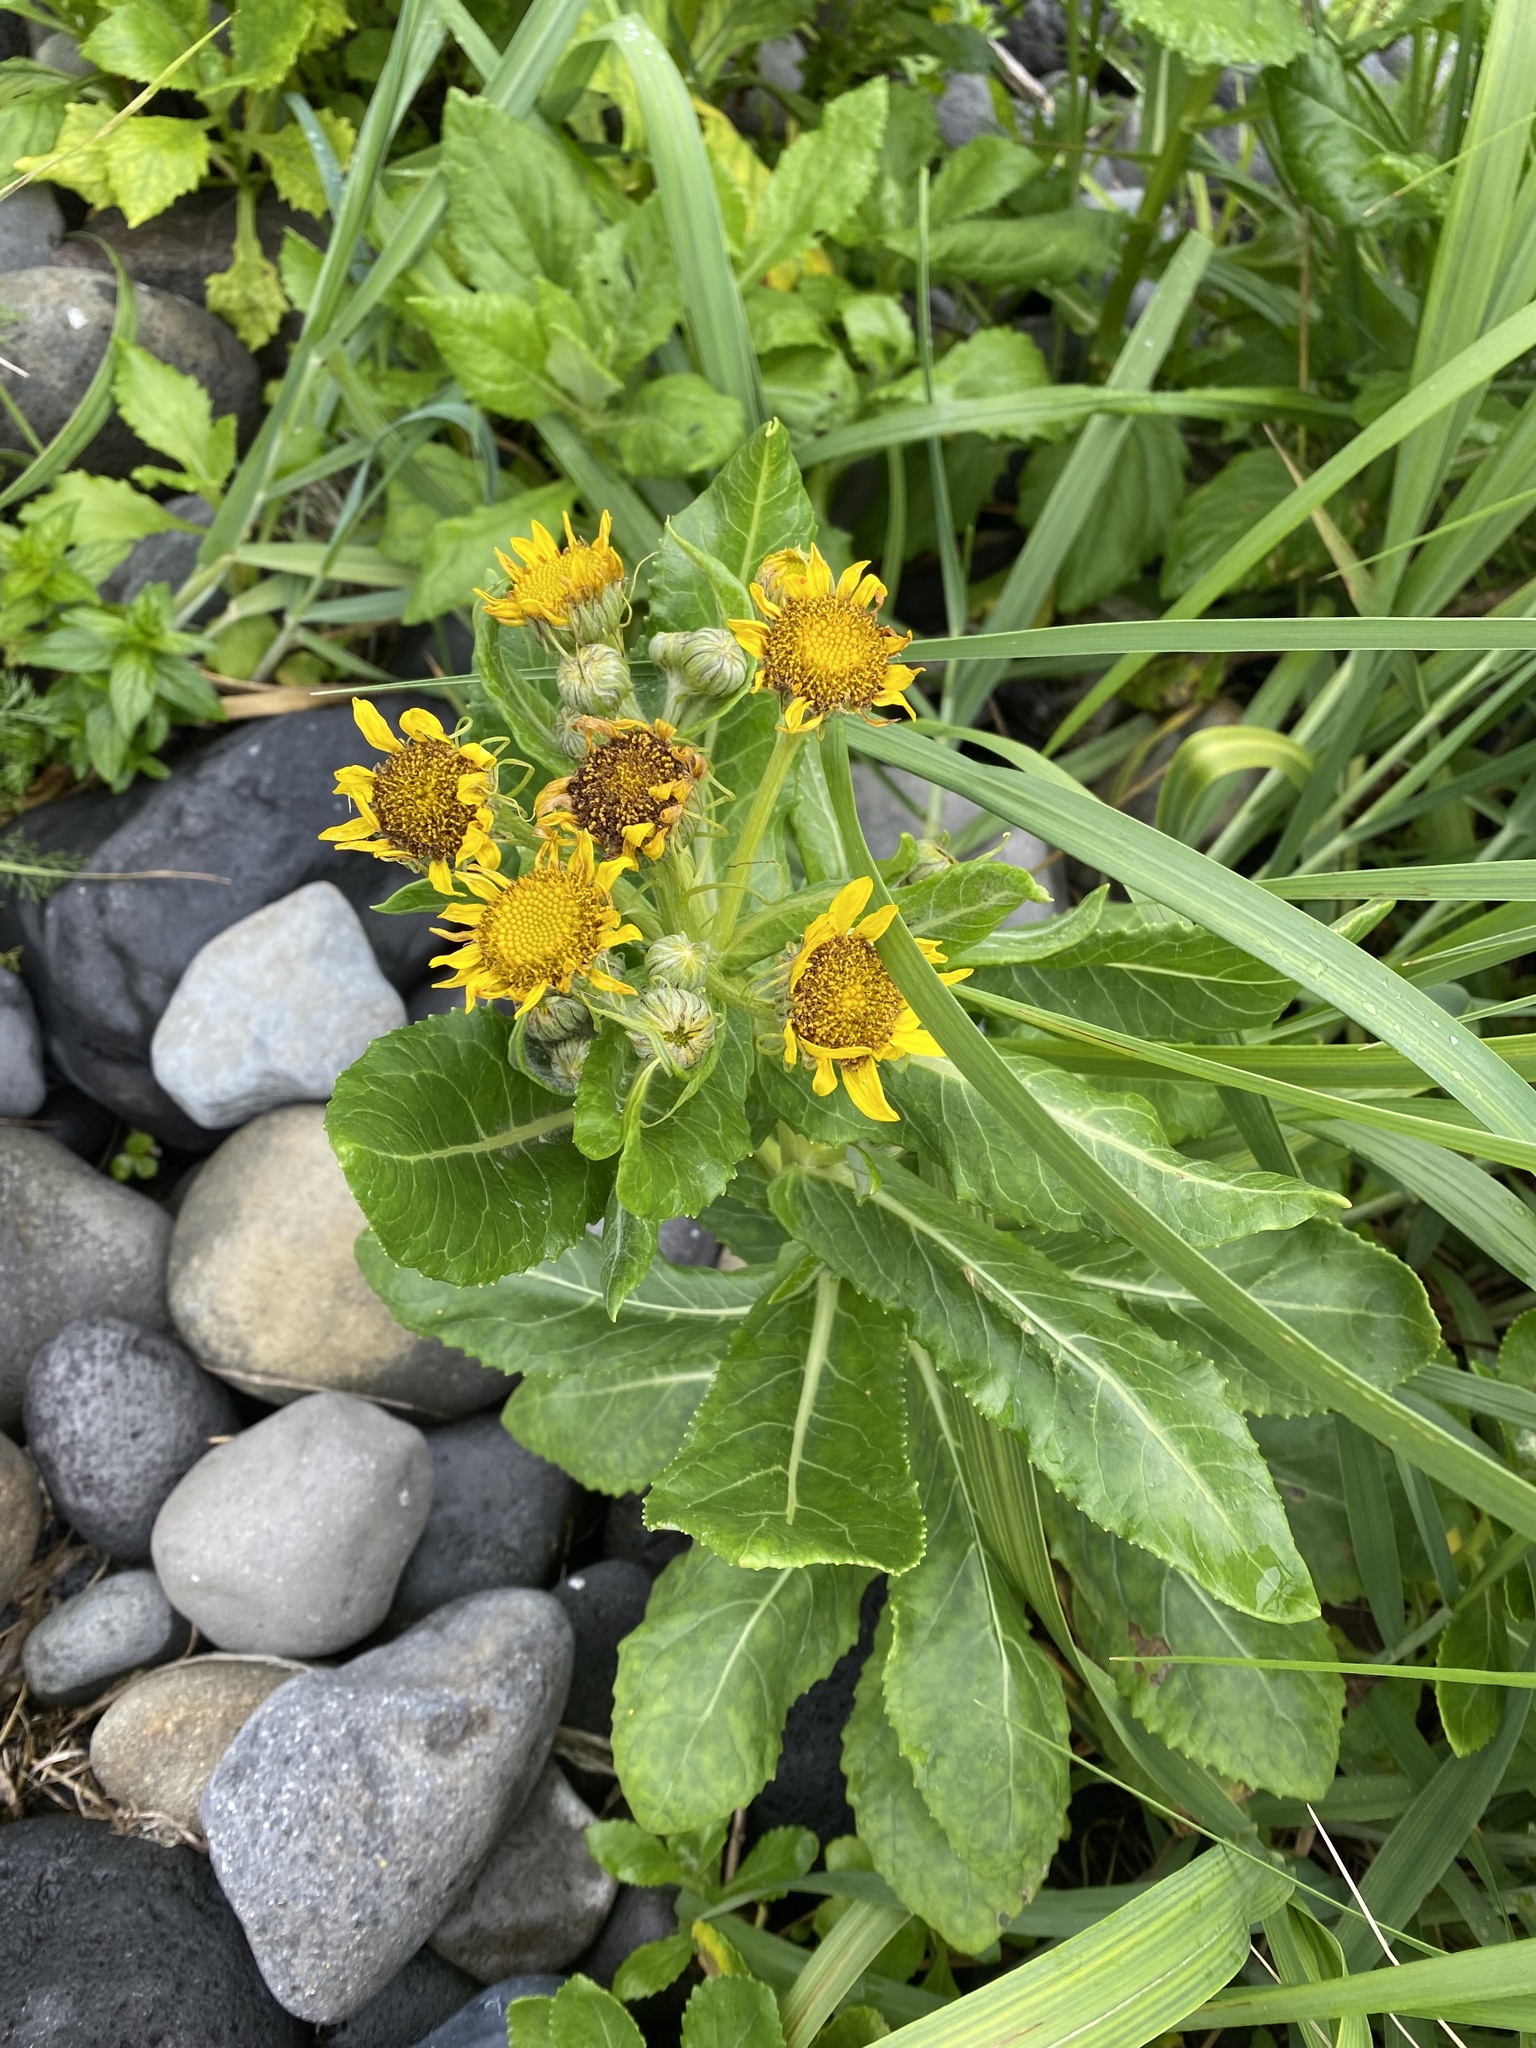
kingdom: Plantae
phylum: Tracheophyta
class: Magnoliopsida
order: Asterales
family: Asteraceae
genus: Jacobaea
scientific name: Jacobaea pseudoarnica
